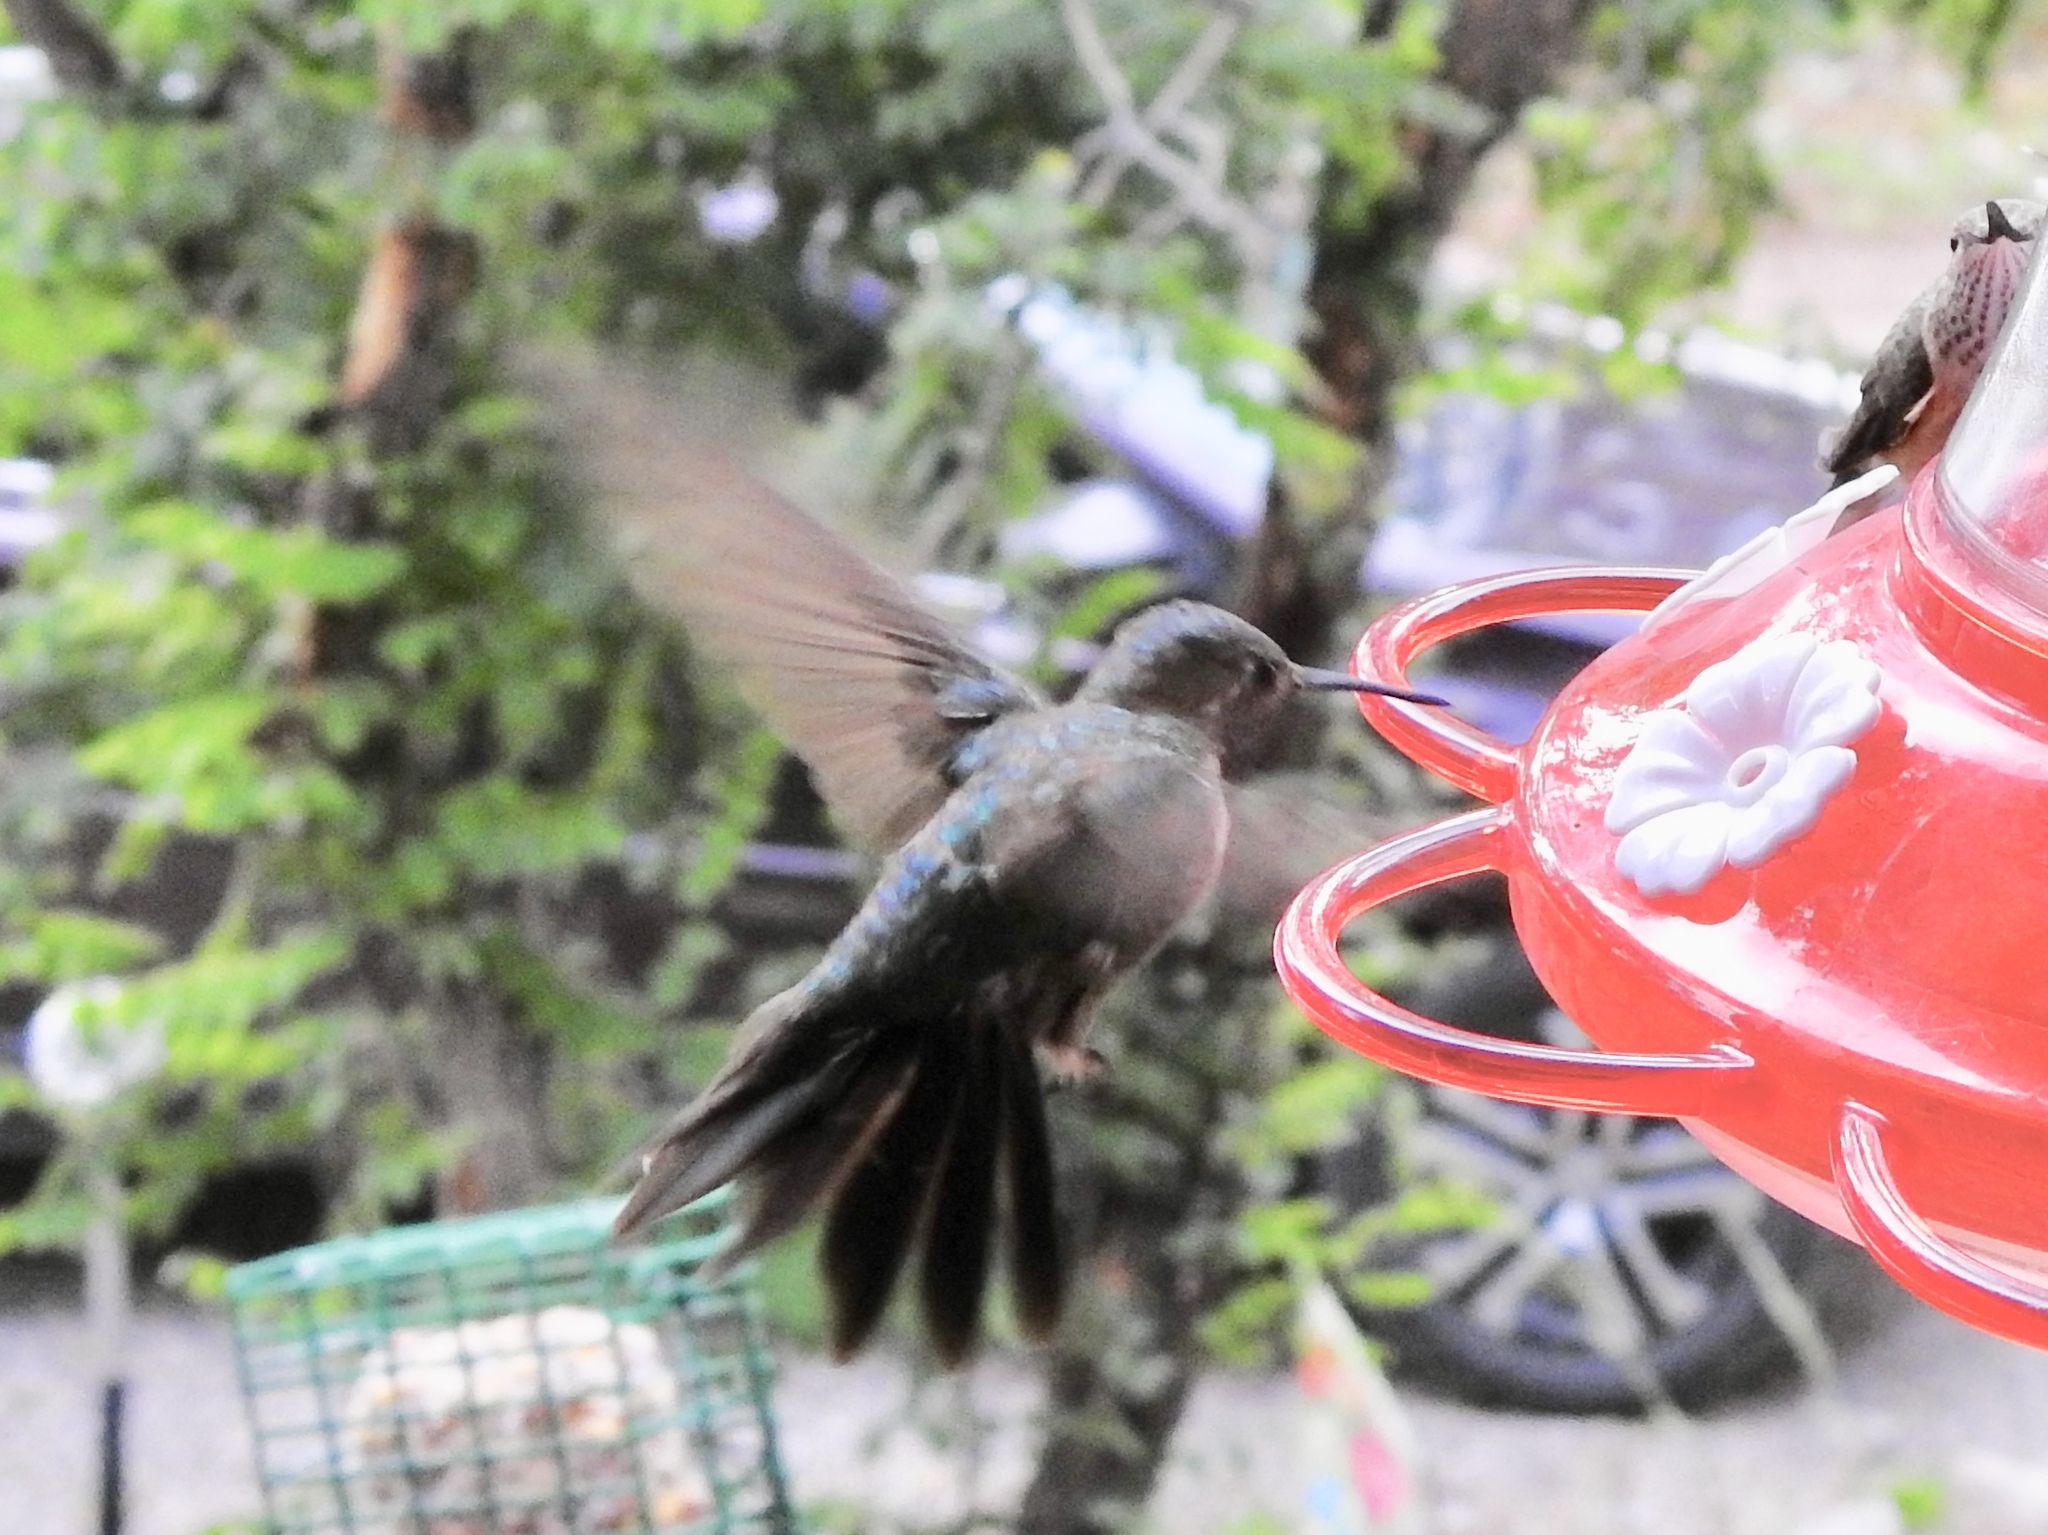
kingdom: Animalia
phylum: Chordata
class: Aves
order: Apodiformes
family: Trochilidae
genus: Selasphorus
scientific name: Selasphorus platycercus
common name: Broad-tailed hummingbird
